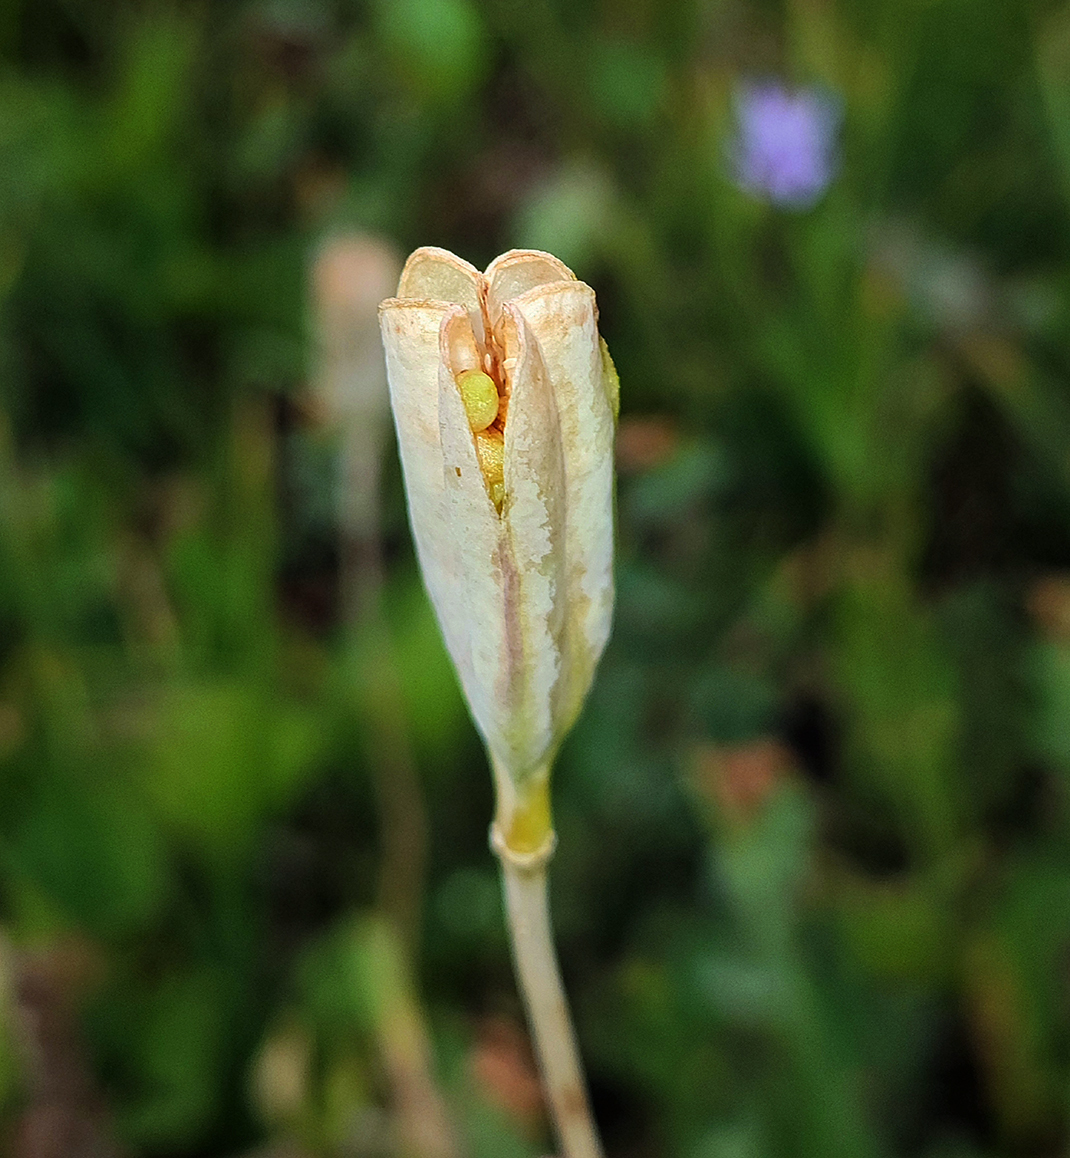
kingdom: Plantae
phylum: Tracheophyta
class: Liliopsida
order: Liliales
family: Liliaceae
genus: Erythronium
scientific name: Erythronium grandiflorum
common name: Avalanche-lily
